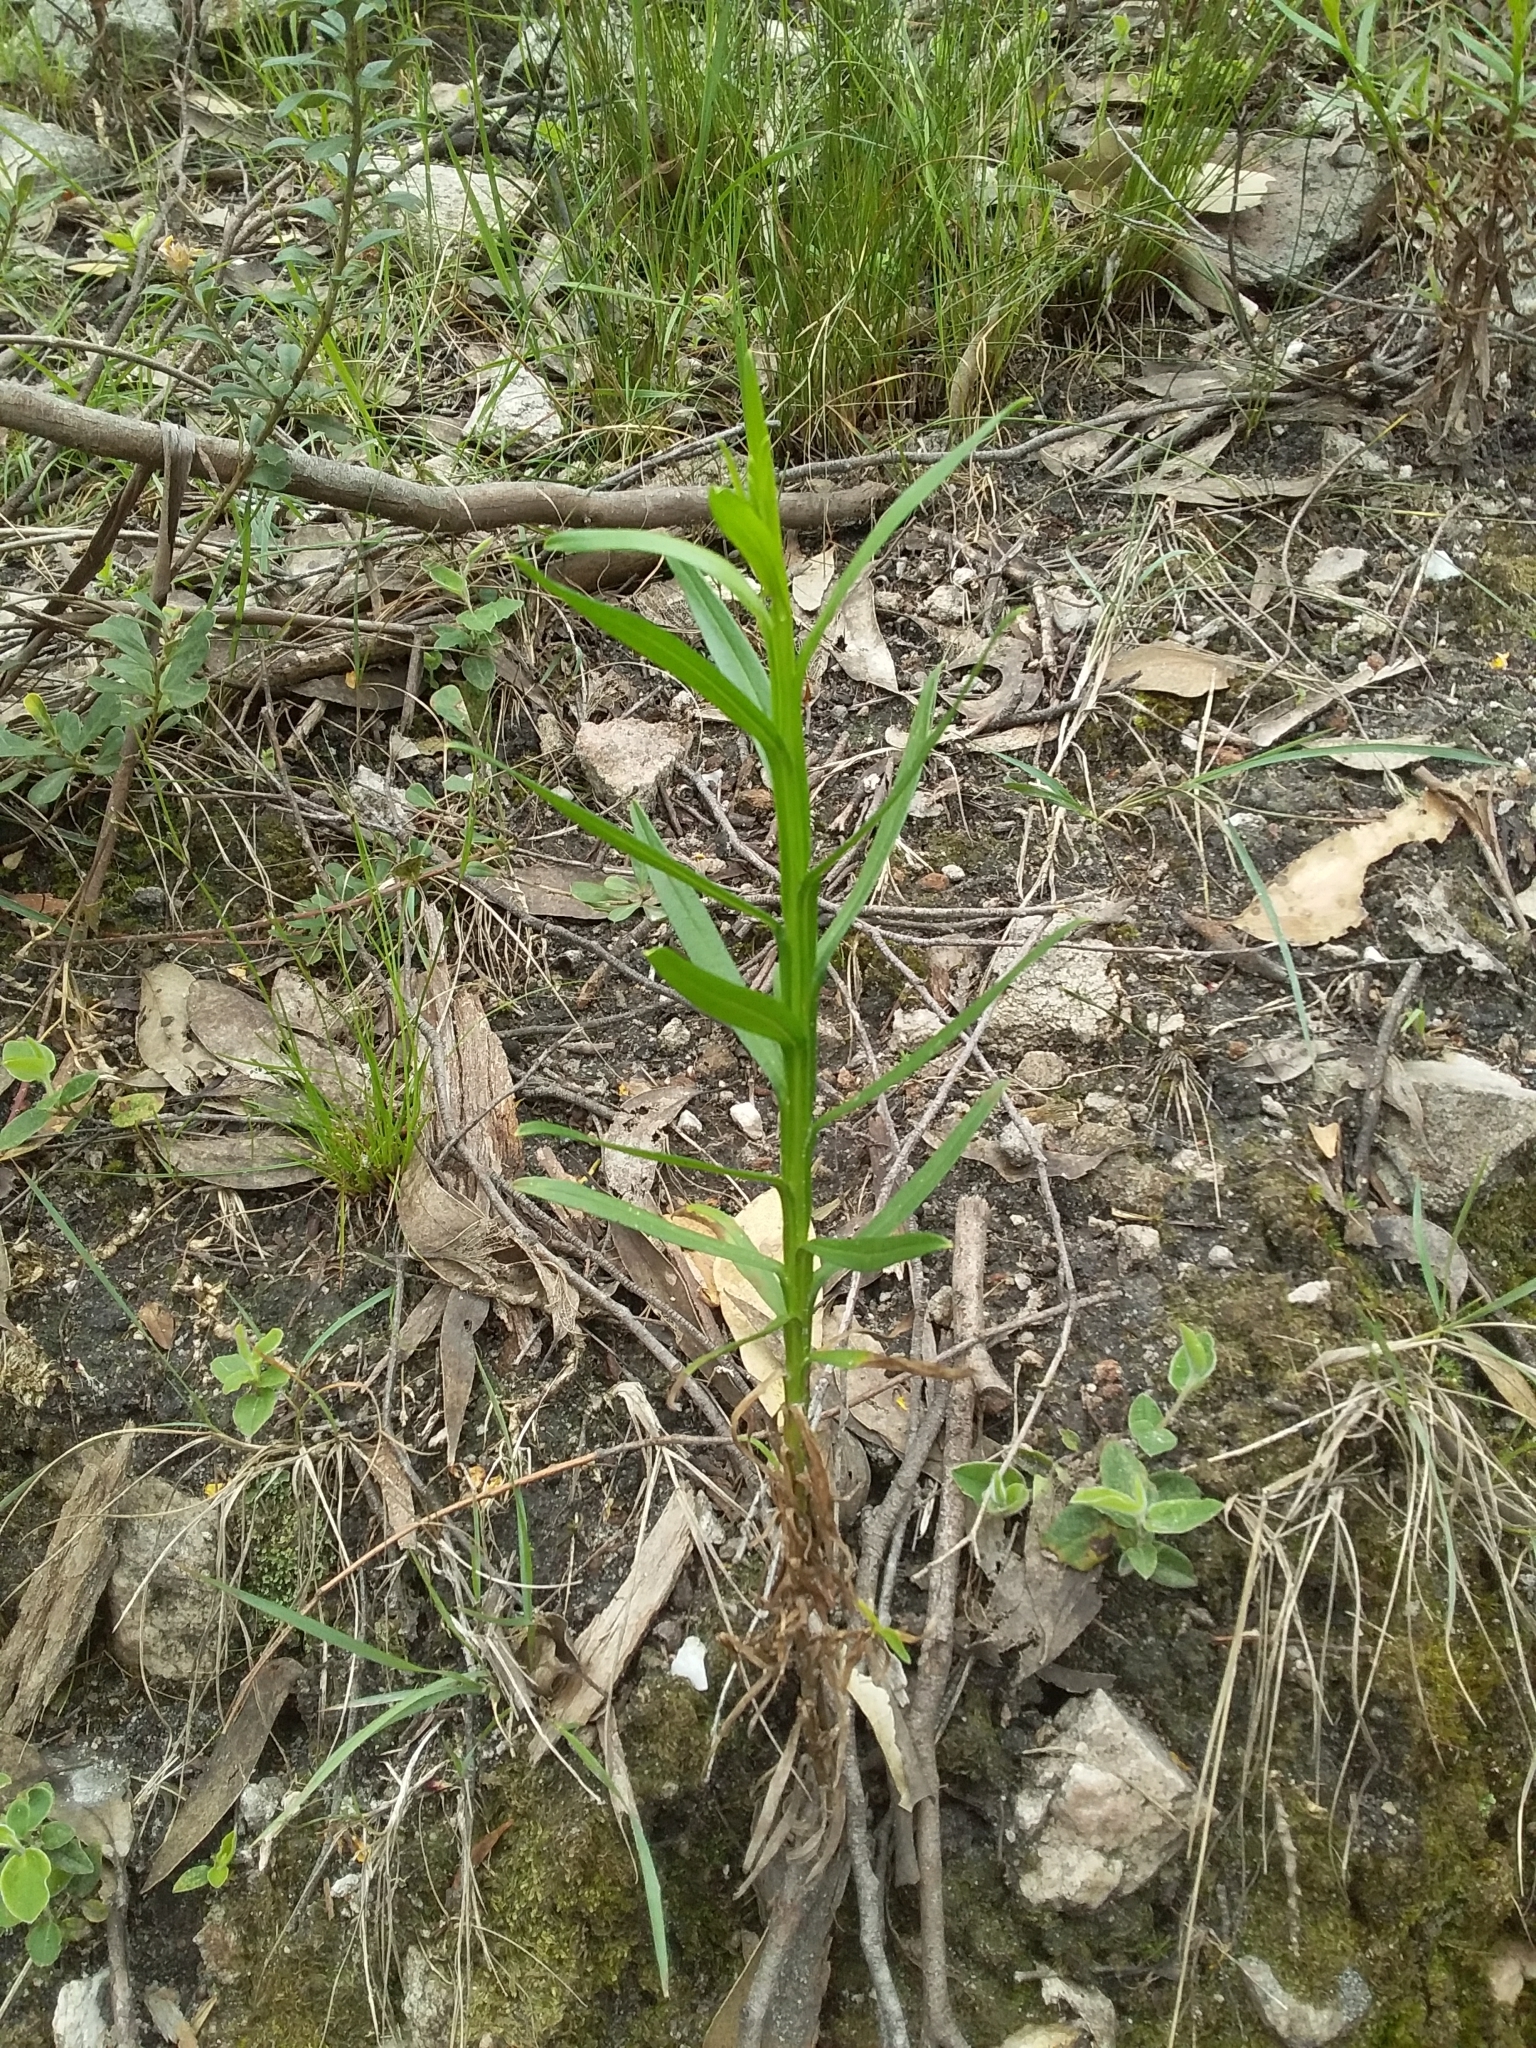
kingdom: Plantae
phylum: Tracheophyta
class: Magnoliopsida
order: Asterales
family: Asteraceae
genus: Ixodia
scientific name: Ixodia achillaeoides
